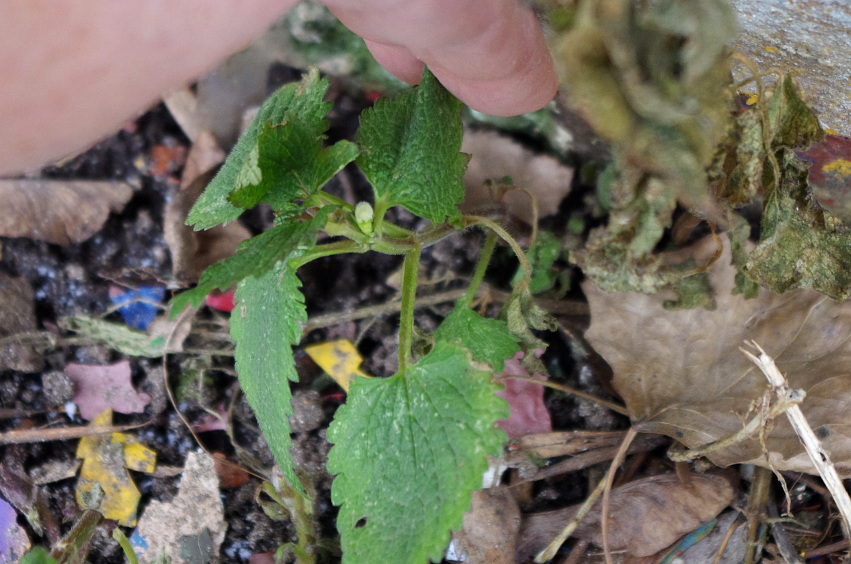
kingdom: Plantae
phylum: Tracheophyta
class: Magnoliopsida
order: Lamiales
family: Lamiaceae
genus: Lamium
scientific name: Lamium album
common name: White dead-nettle
